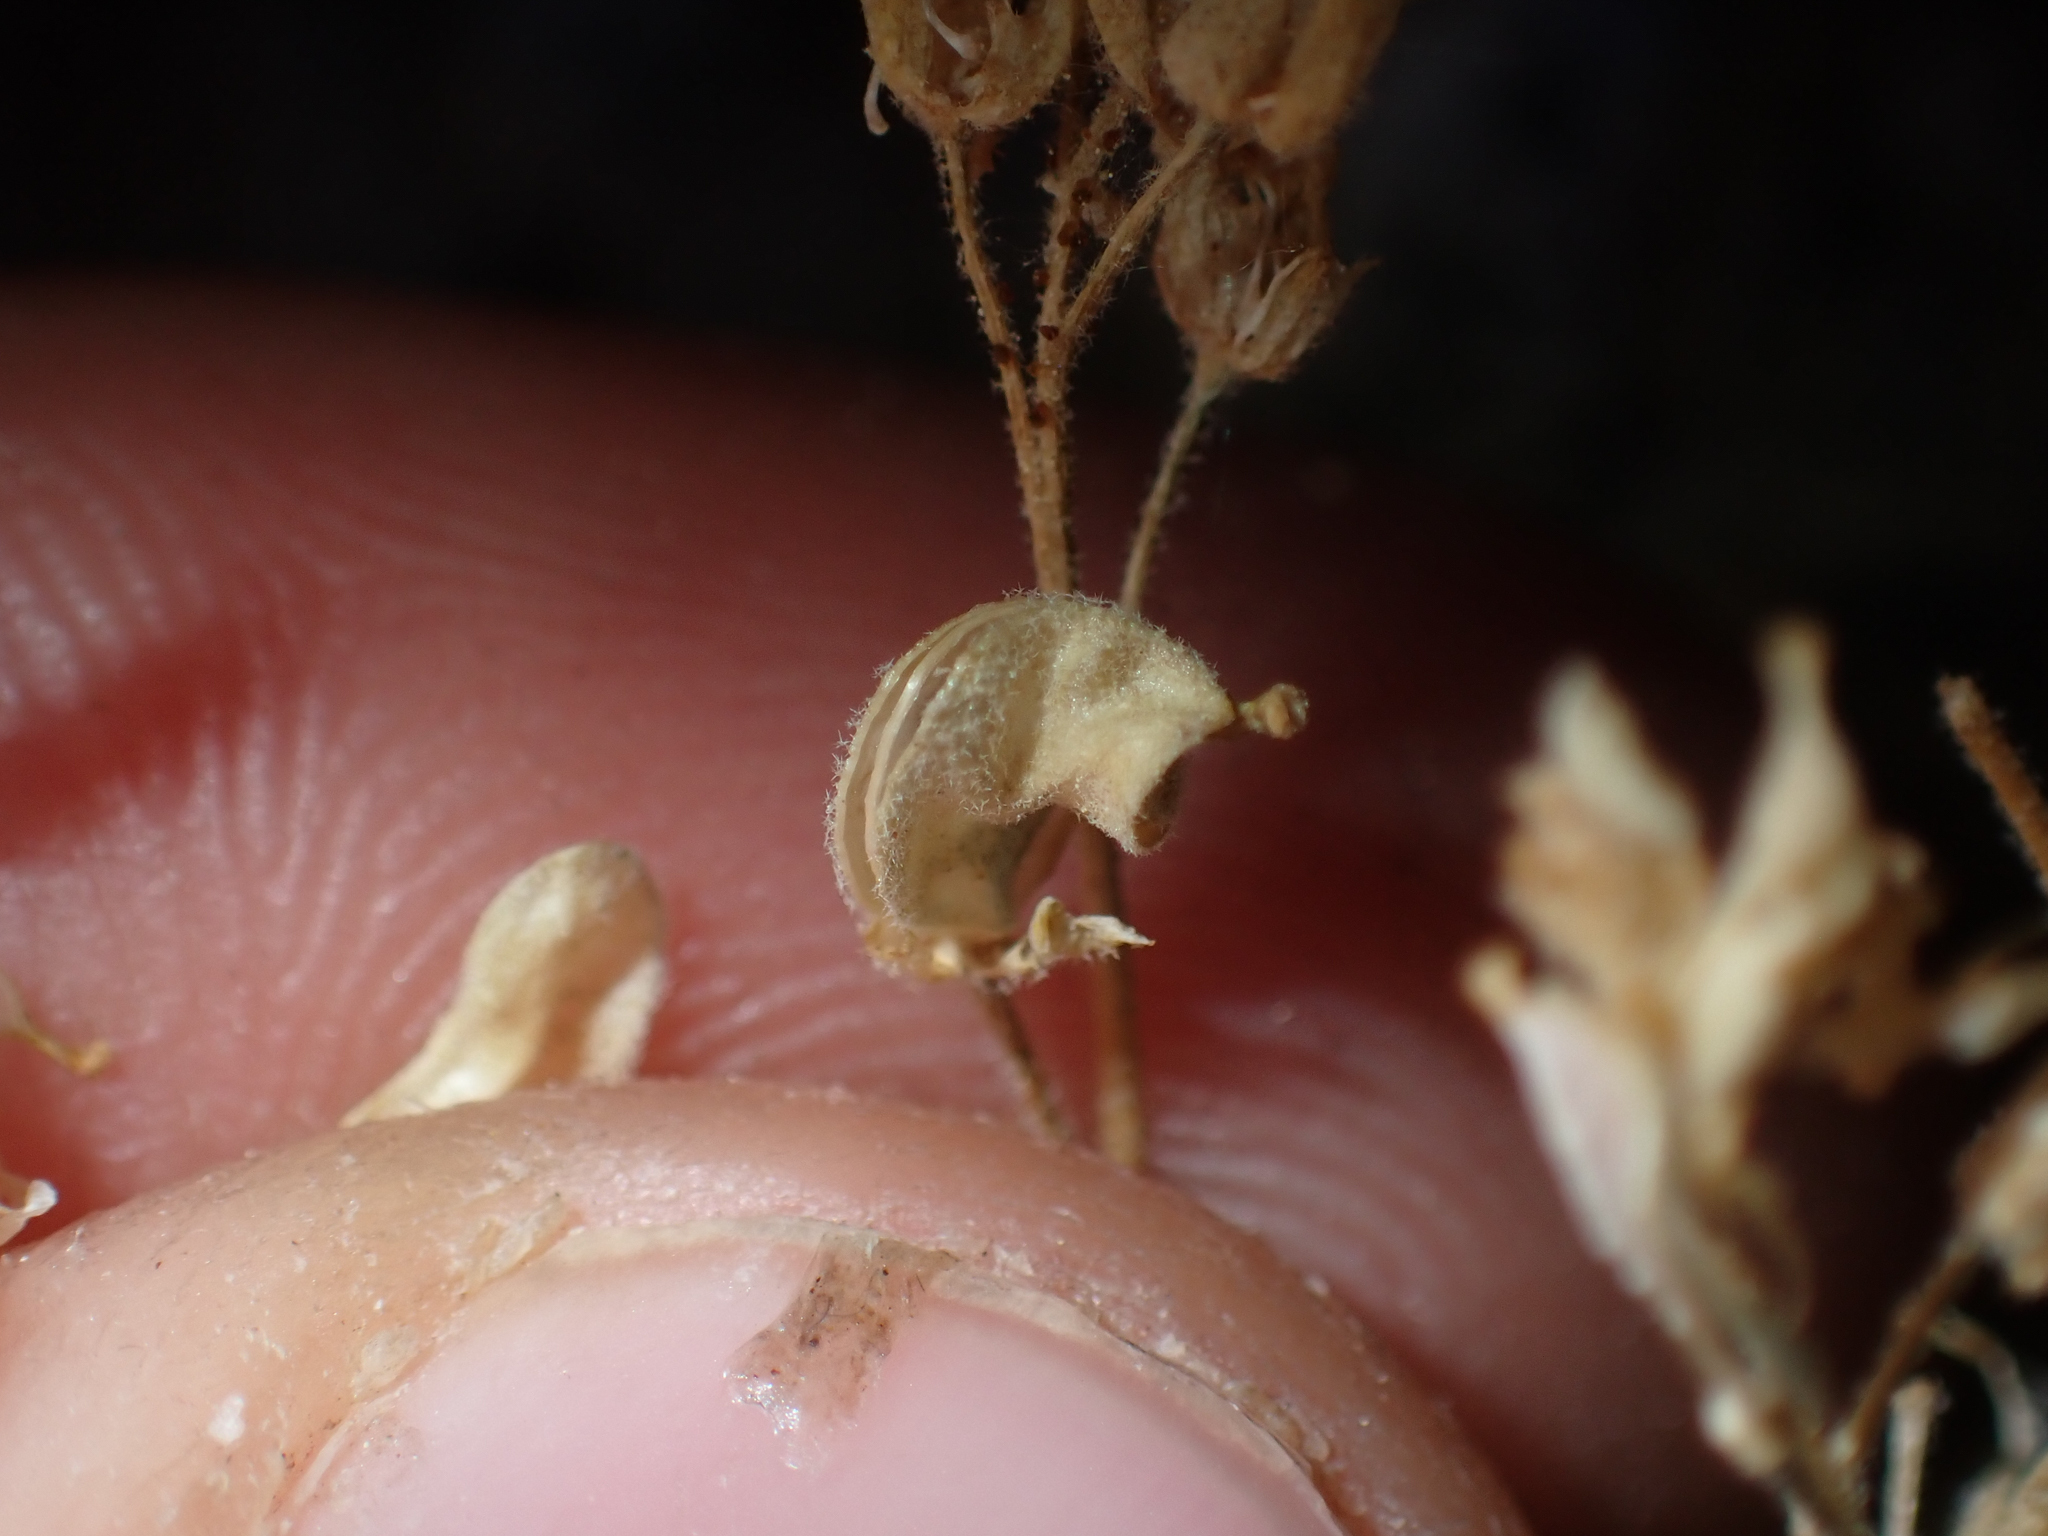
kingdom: Plantae
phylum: Tracheophyta
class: Magnoliopsida
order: Brassicales
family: Brassicaceae
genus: Draba
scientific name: Draba sierrae
